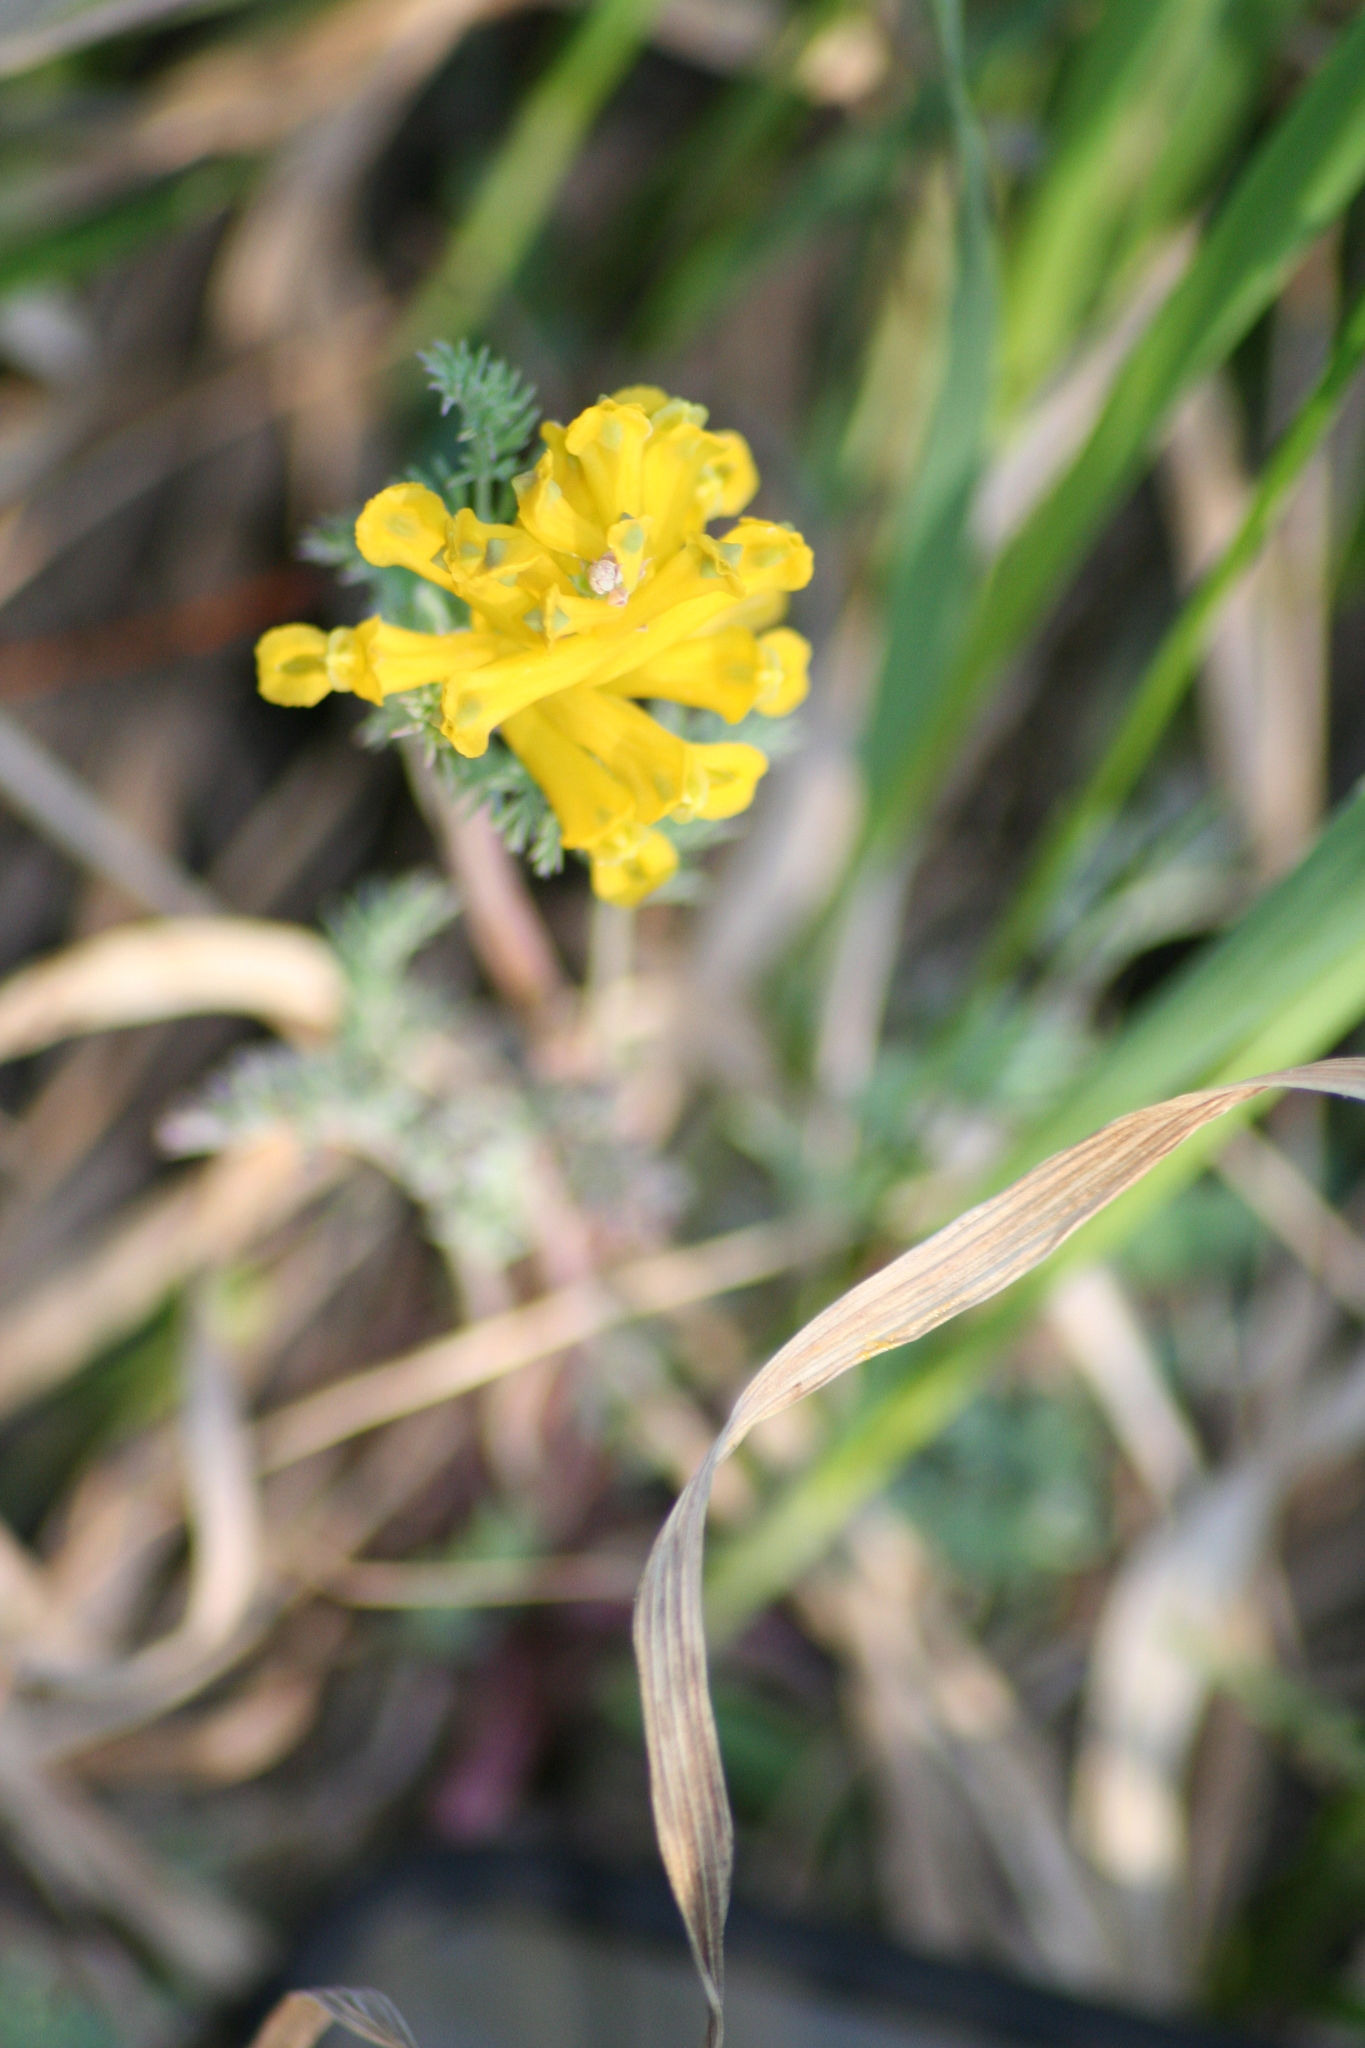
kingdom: Plantae
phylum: Tracheophyta
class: Magnoliopsida
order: Ranunculales
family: Papaveraceae
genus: Corydalis
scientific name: Corydalis aurea
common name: Golden corydalis
